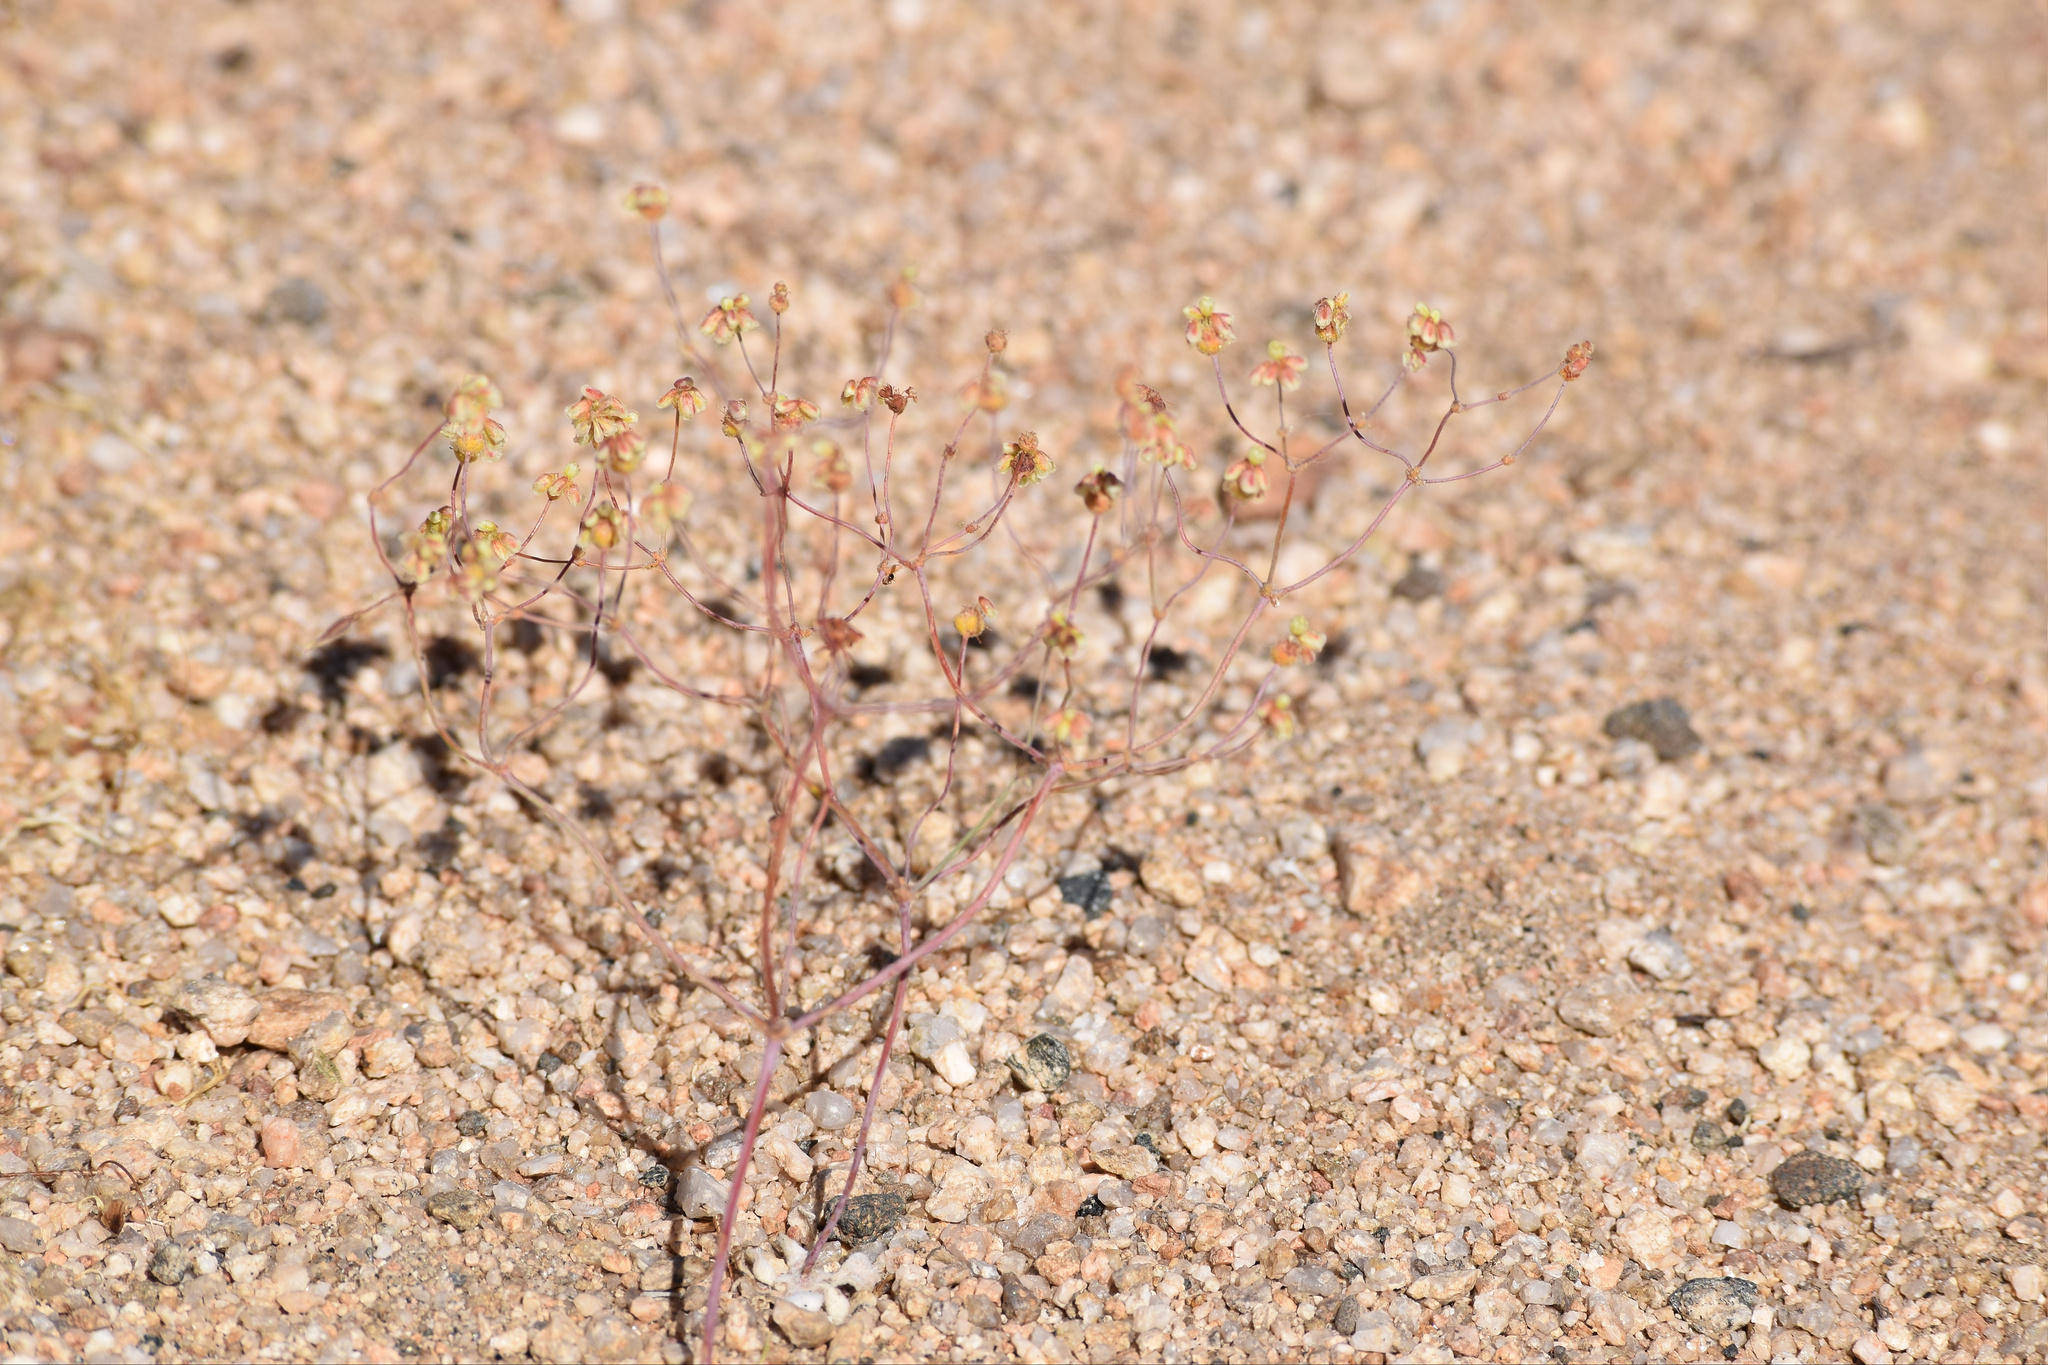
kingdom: Plantae
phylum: Tracheophyta
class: Magnoliopsida
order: Caryophyllales
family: Polygonaceae
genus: Eriogonum
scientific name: Eriogonum pusillum
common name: Yellow turbans
